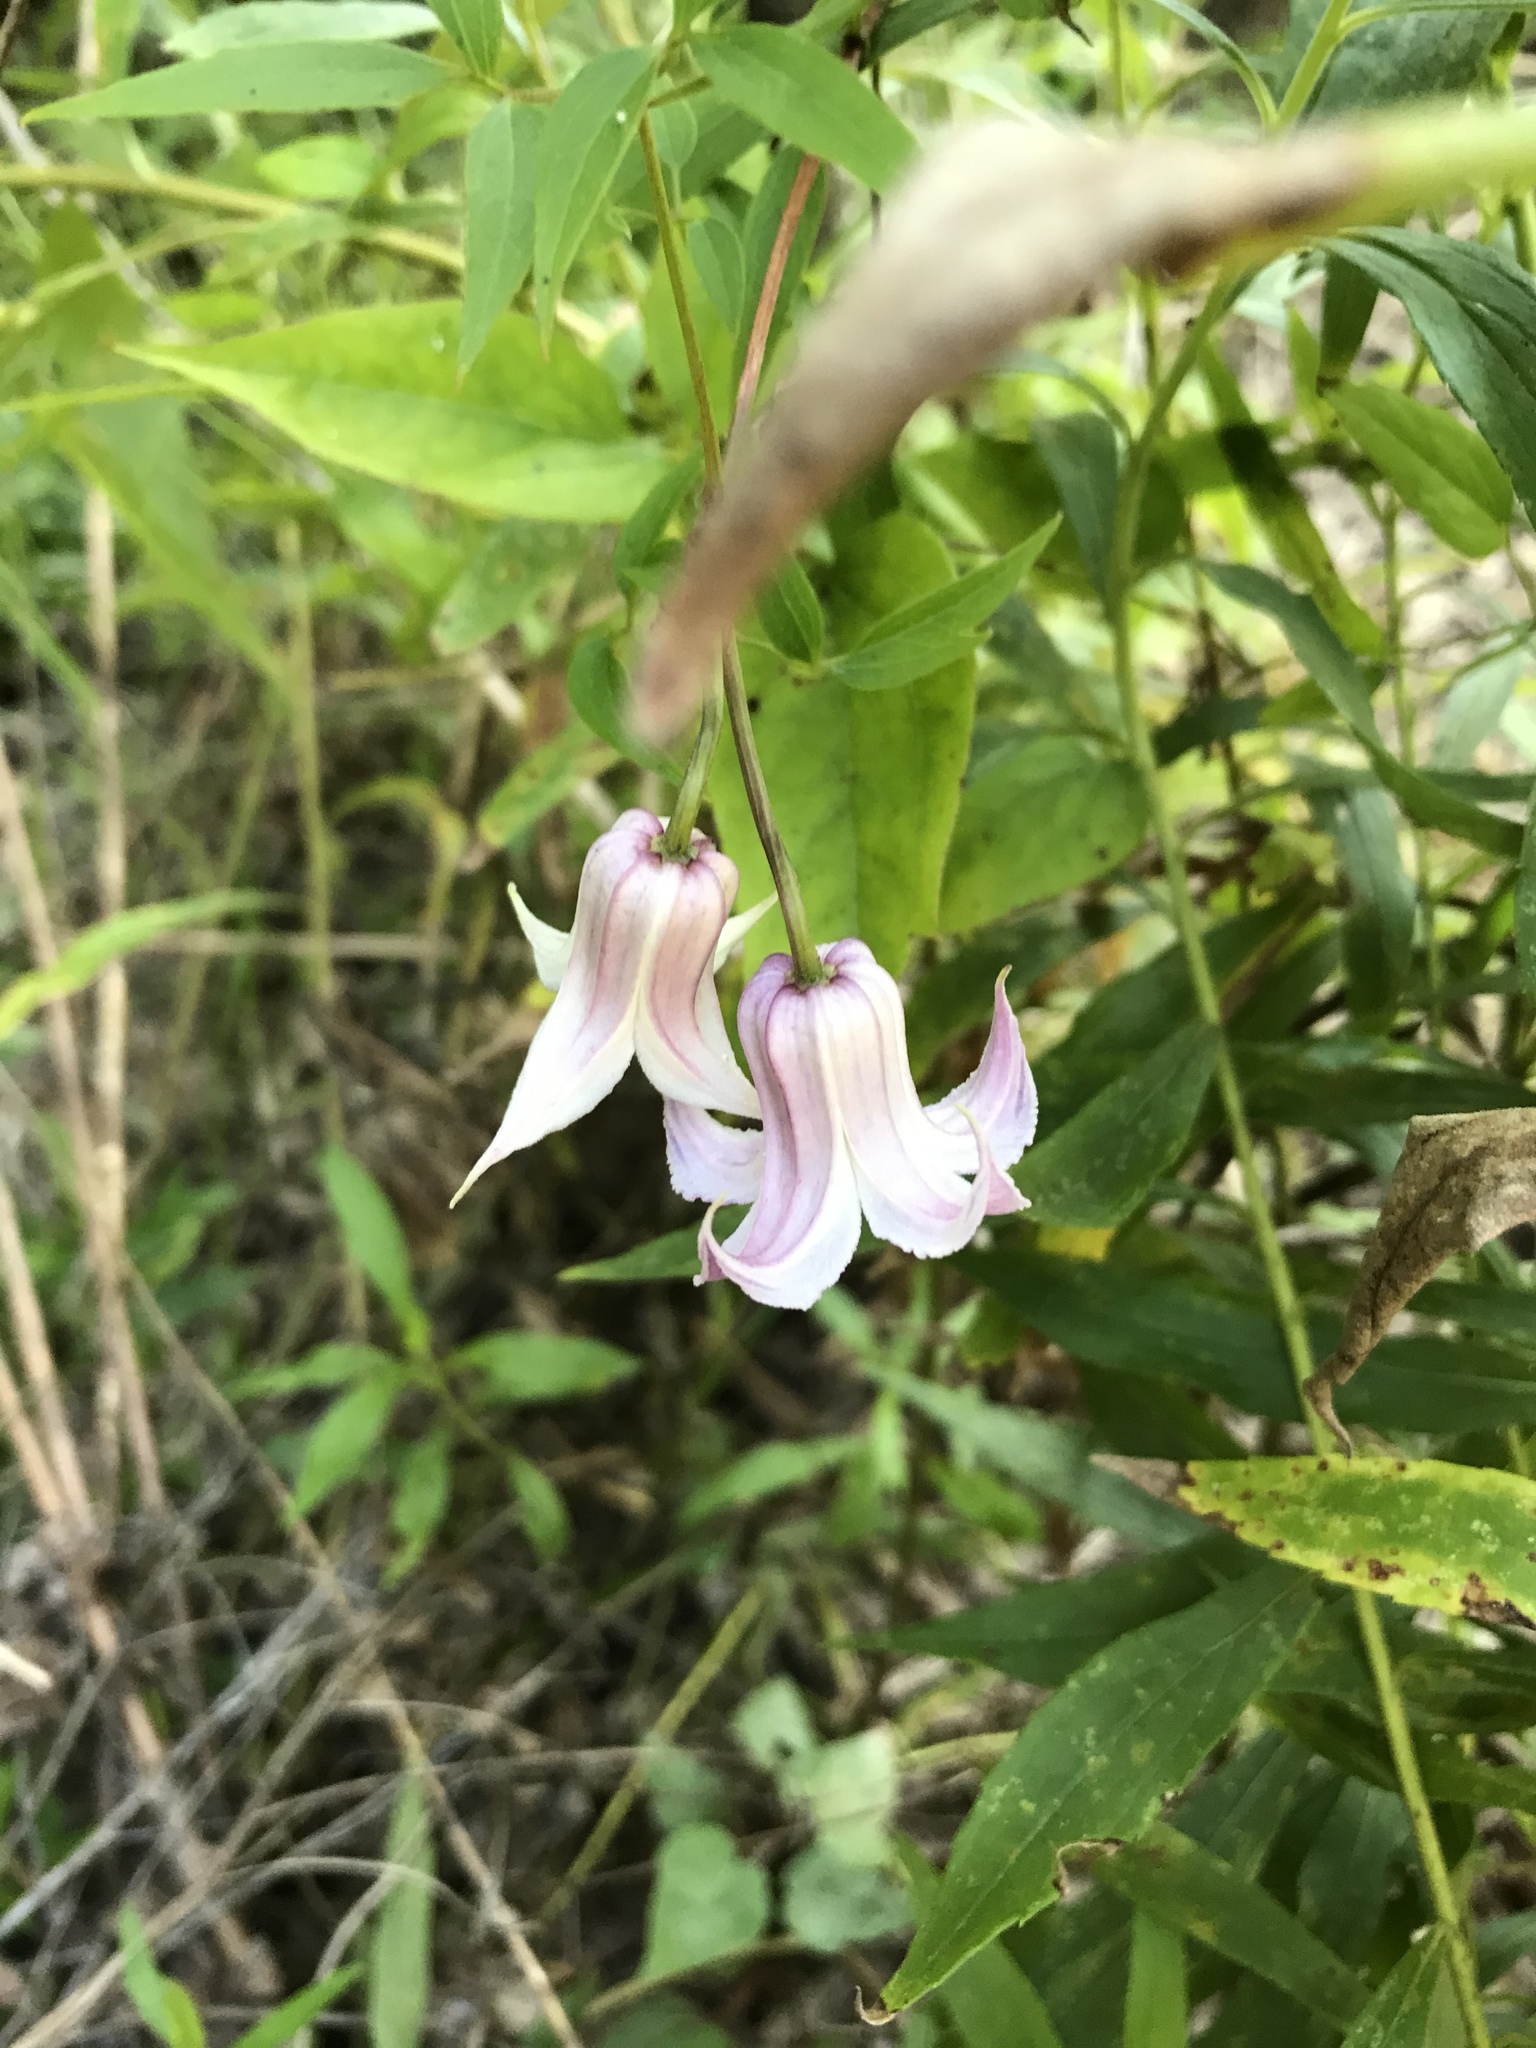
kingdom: Plantae
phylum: Tracheophyta
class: Magnoliopsida
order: Ranunculales
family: Ranunculaceae
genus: Clematis
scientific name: Clematis crispa
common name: Curly clematis
